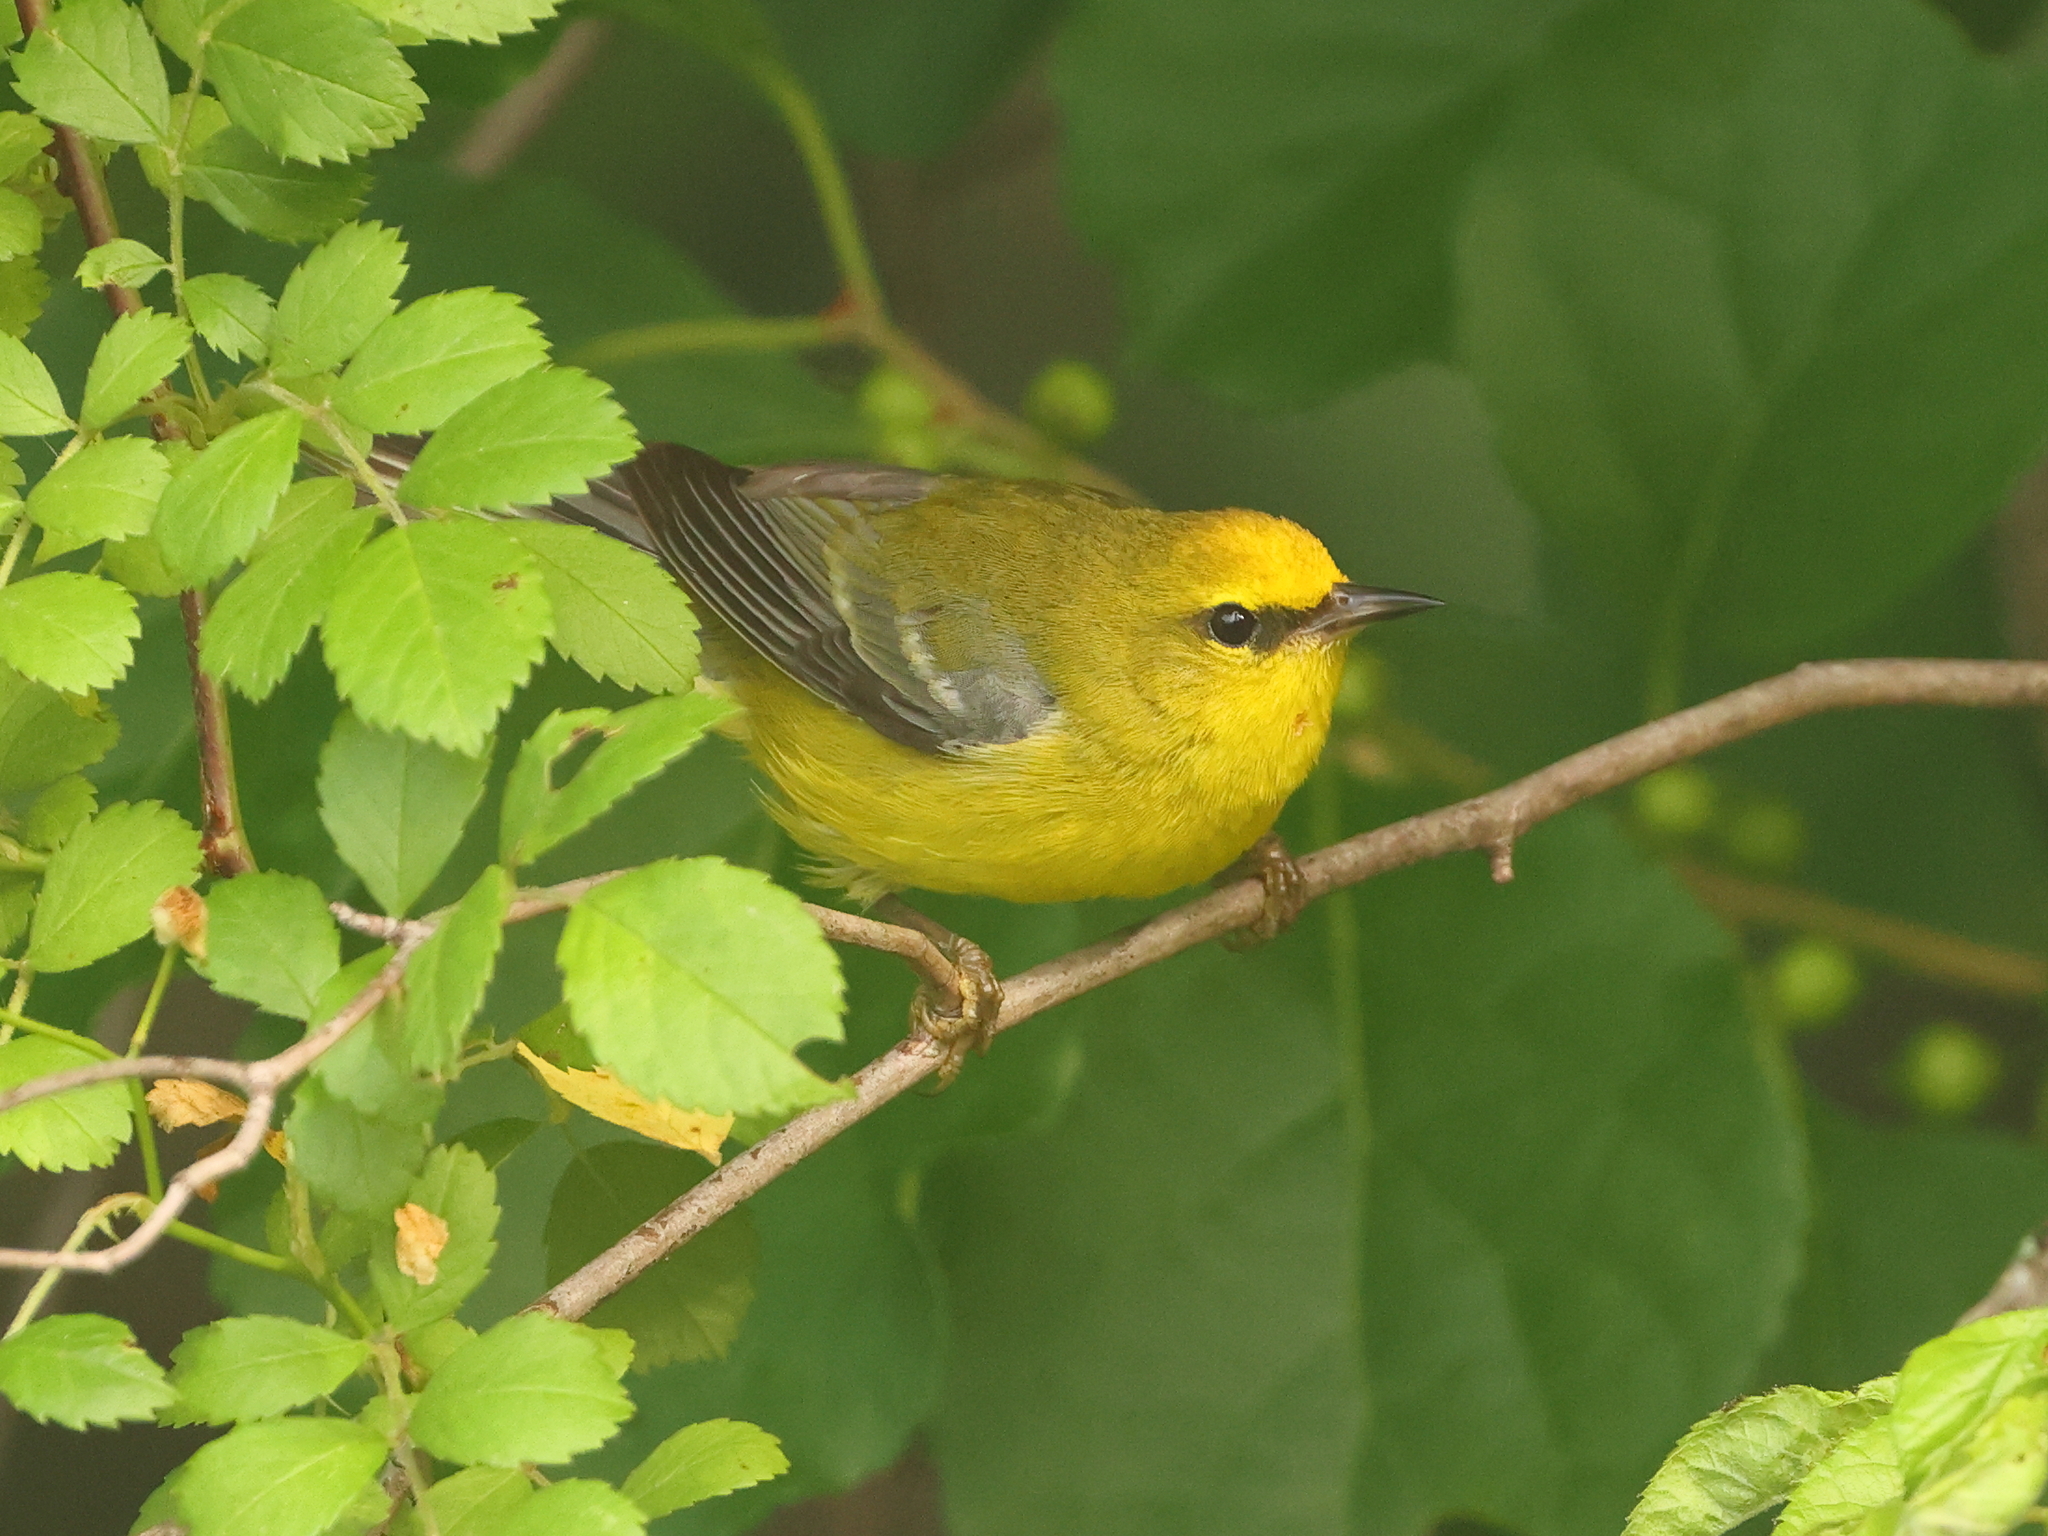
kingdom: Animalia
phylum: Chordata
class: Aves
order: Passeriformes
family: Parulidae
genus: Vermivora
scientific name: Vermivora cyanoptera
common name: Blue-winged warbler
